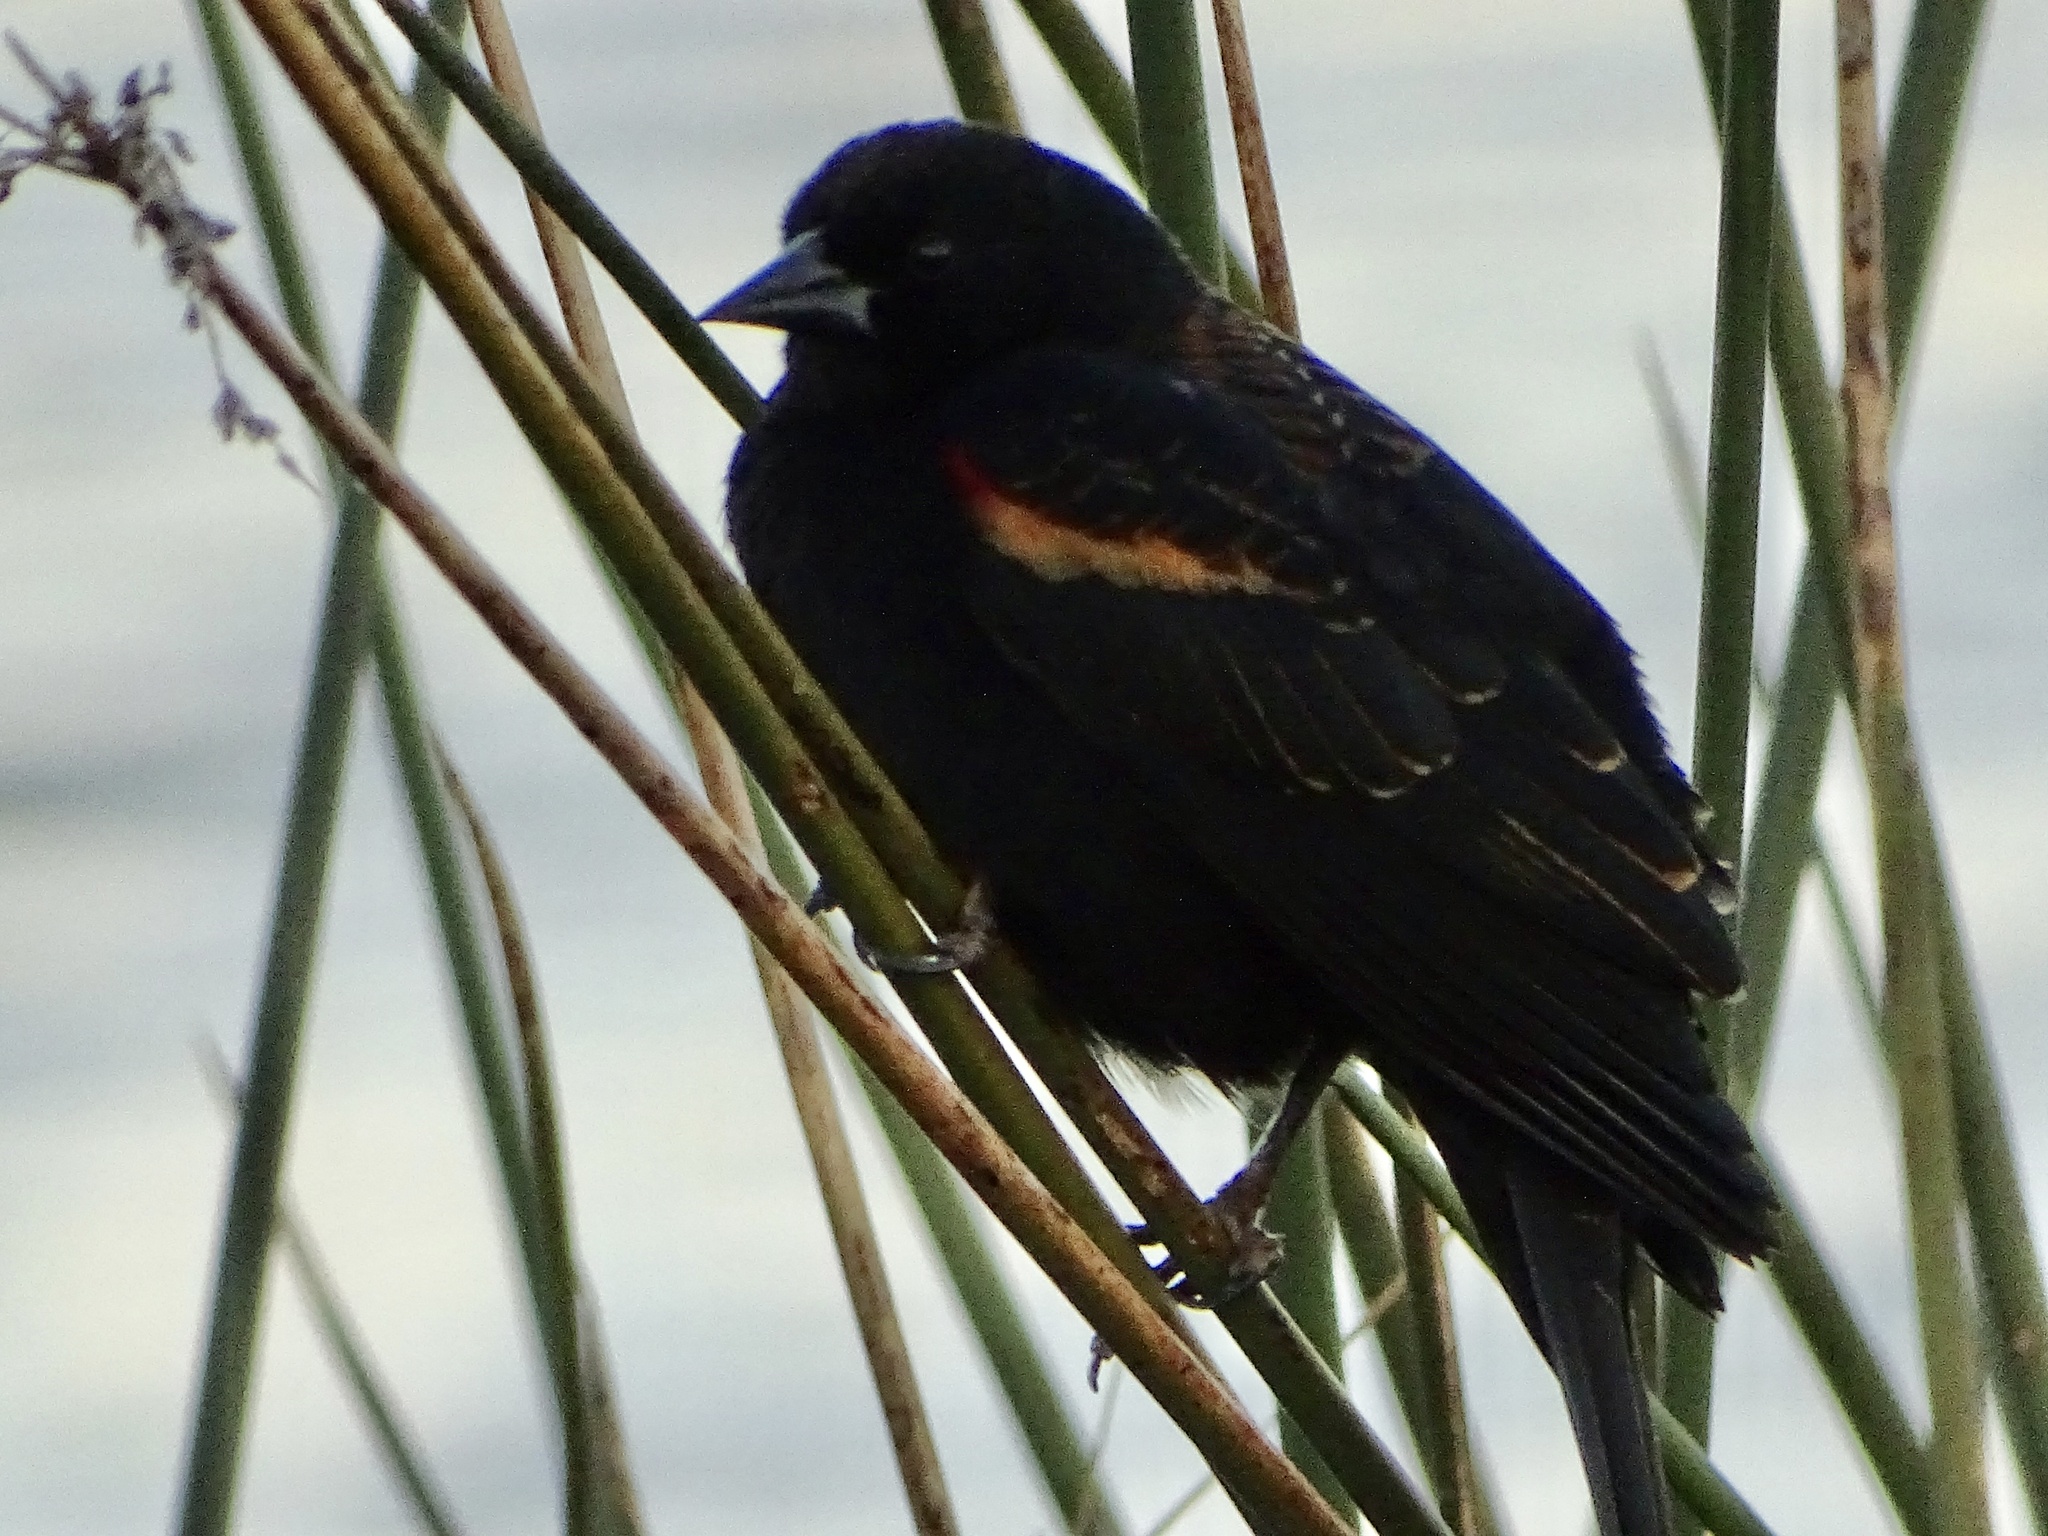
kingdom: Animalia
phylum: Chordata
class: Aves
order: Passeriformes
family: Icteridae
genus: Agelaius
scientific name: Agelaius phoeniceus
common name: Red-winged blackbird
